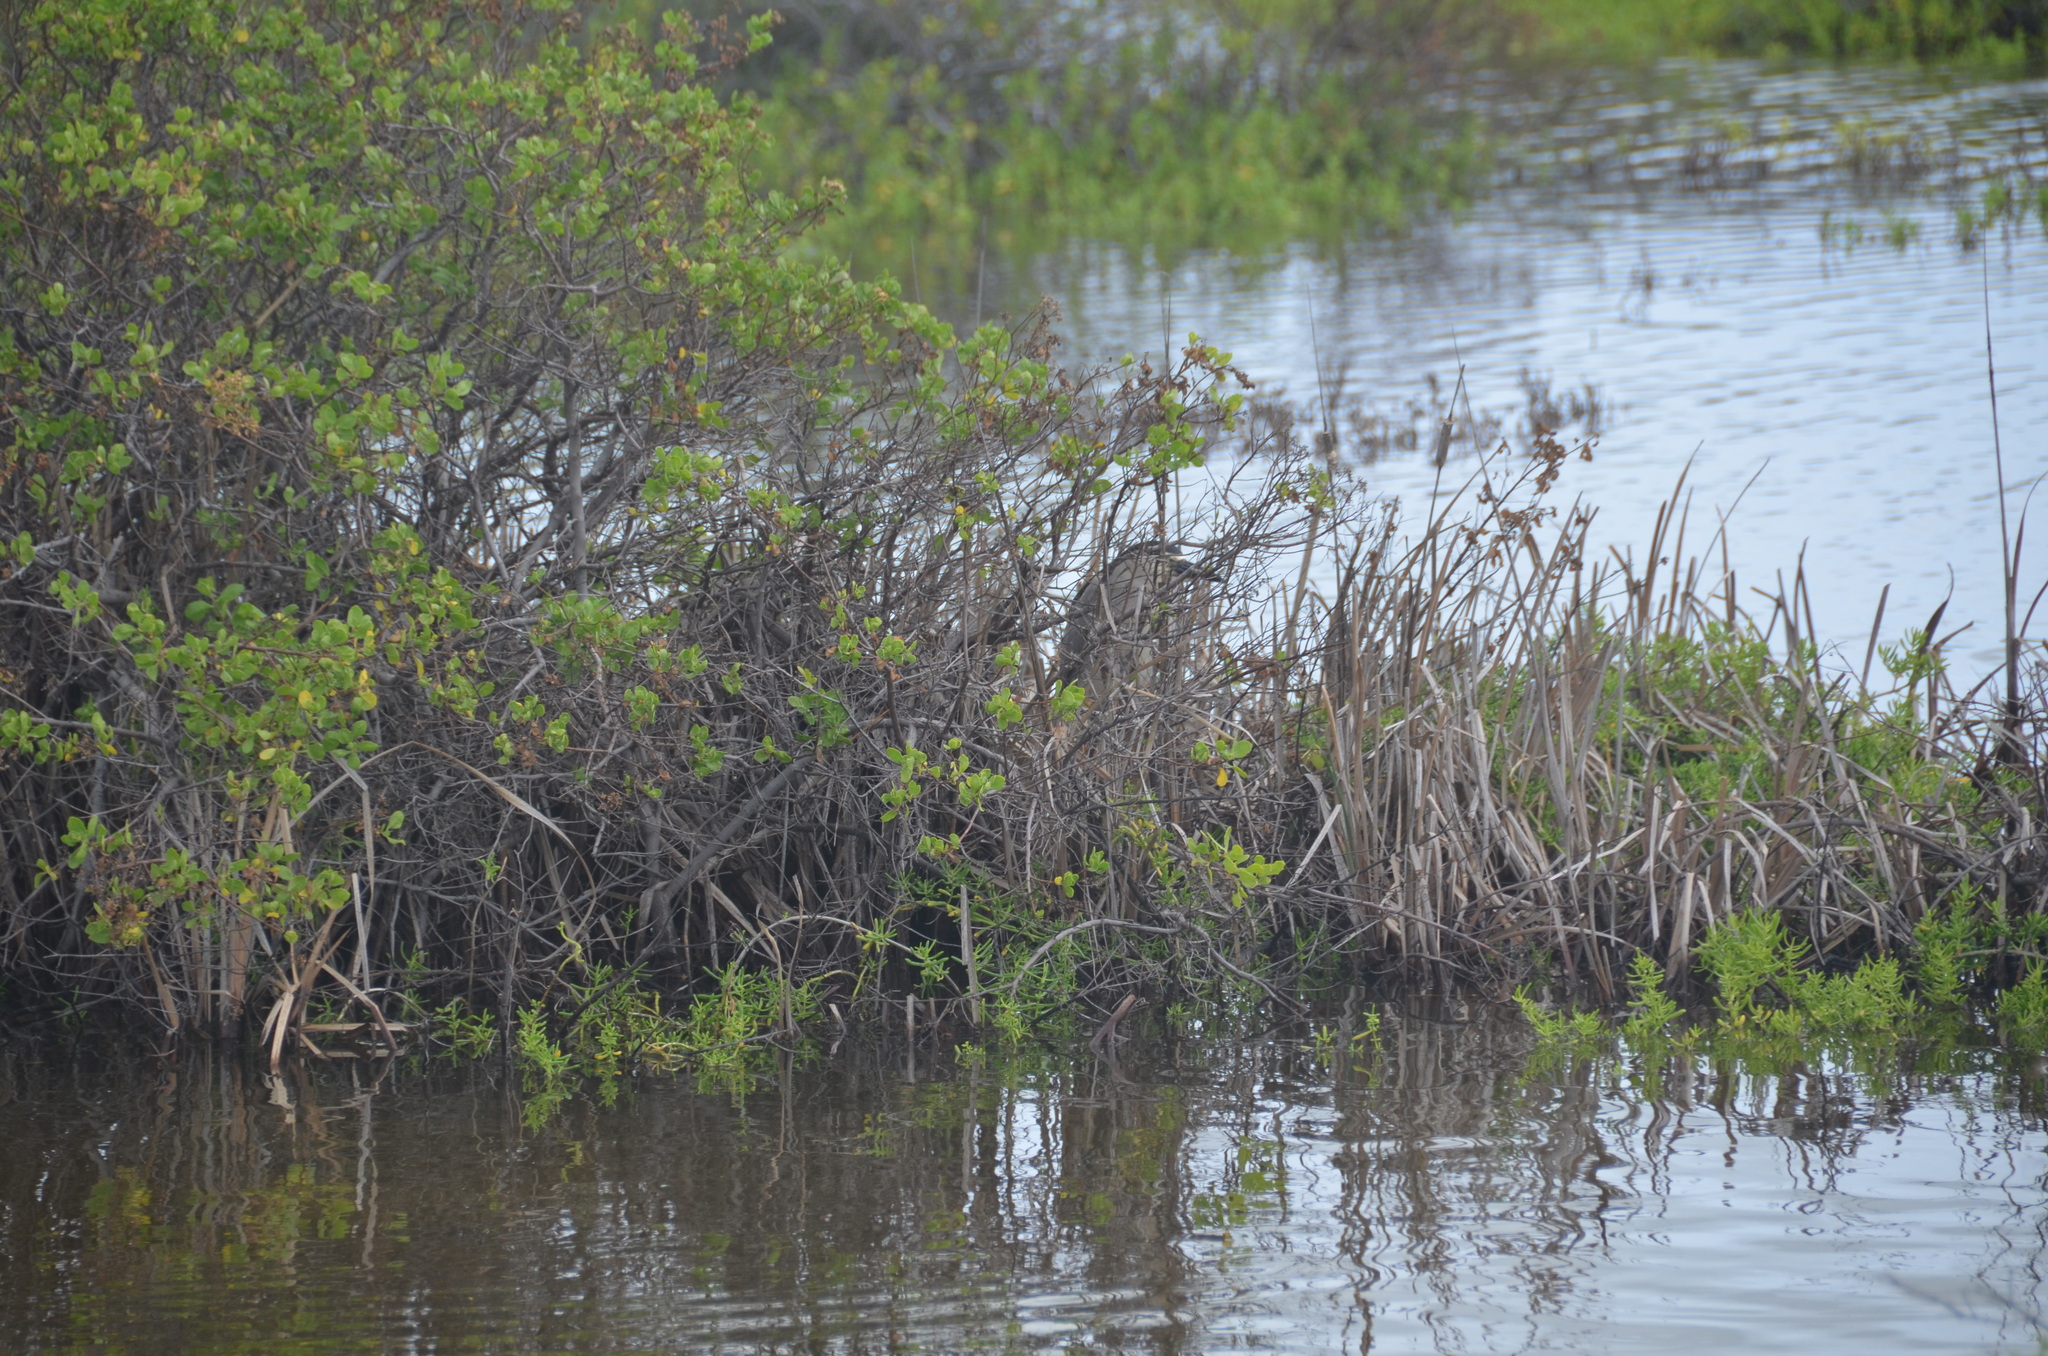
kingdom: Animalia
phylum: Chordata
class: Aves
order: Pelecaniformes
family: Ardeidae
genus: Nycticorax
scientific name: Nycticorax nycticorax
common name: Black-crowned night heron
